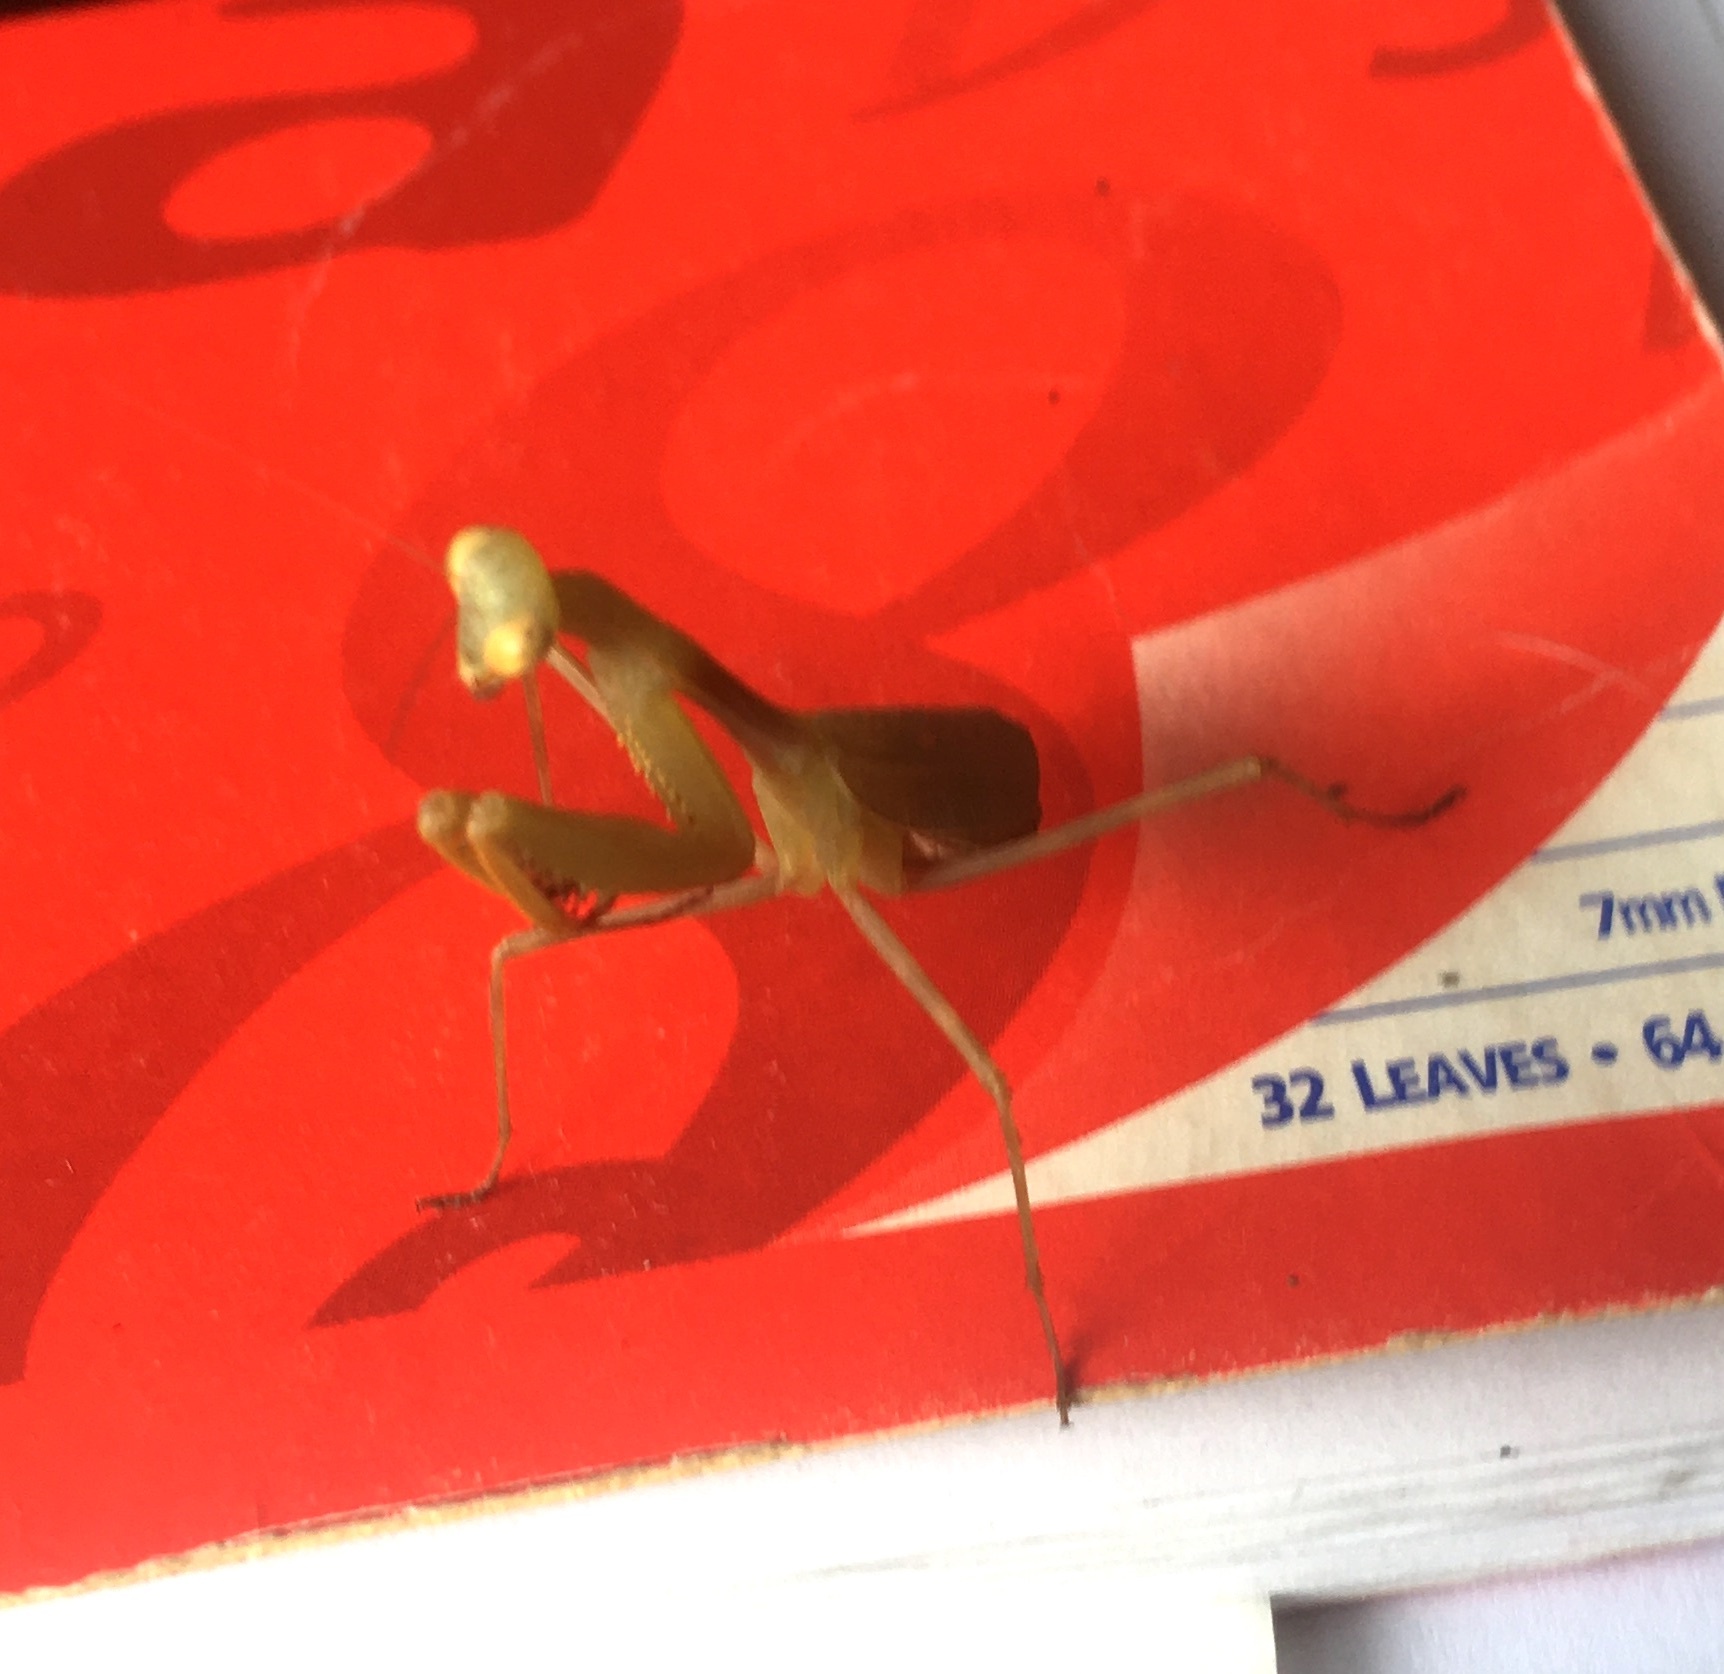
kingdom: Animalia
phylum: Arthropoda
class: Insecta
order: Mantodea
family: Miomantidae
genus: Miomantis
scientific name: Miomantis caffra
